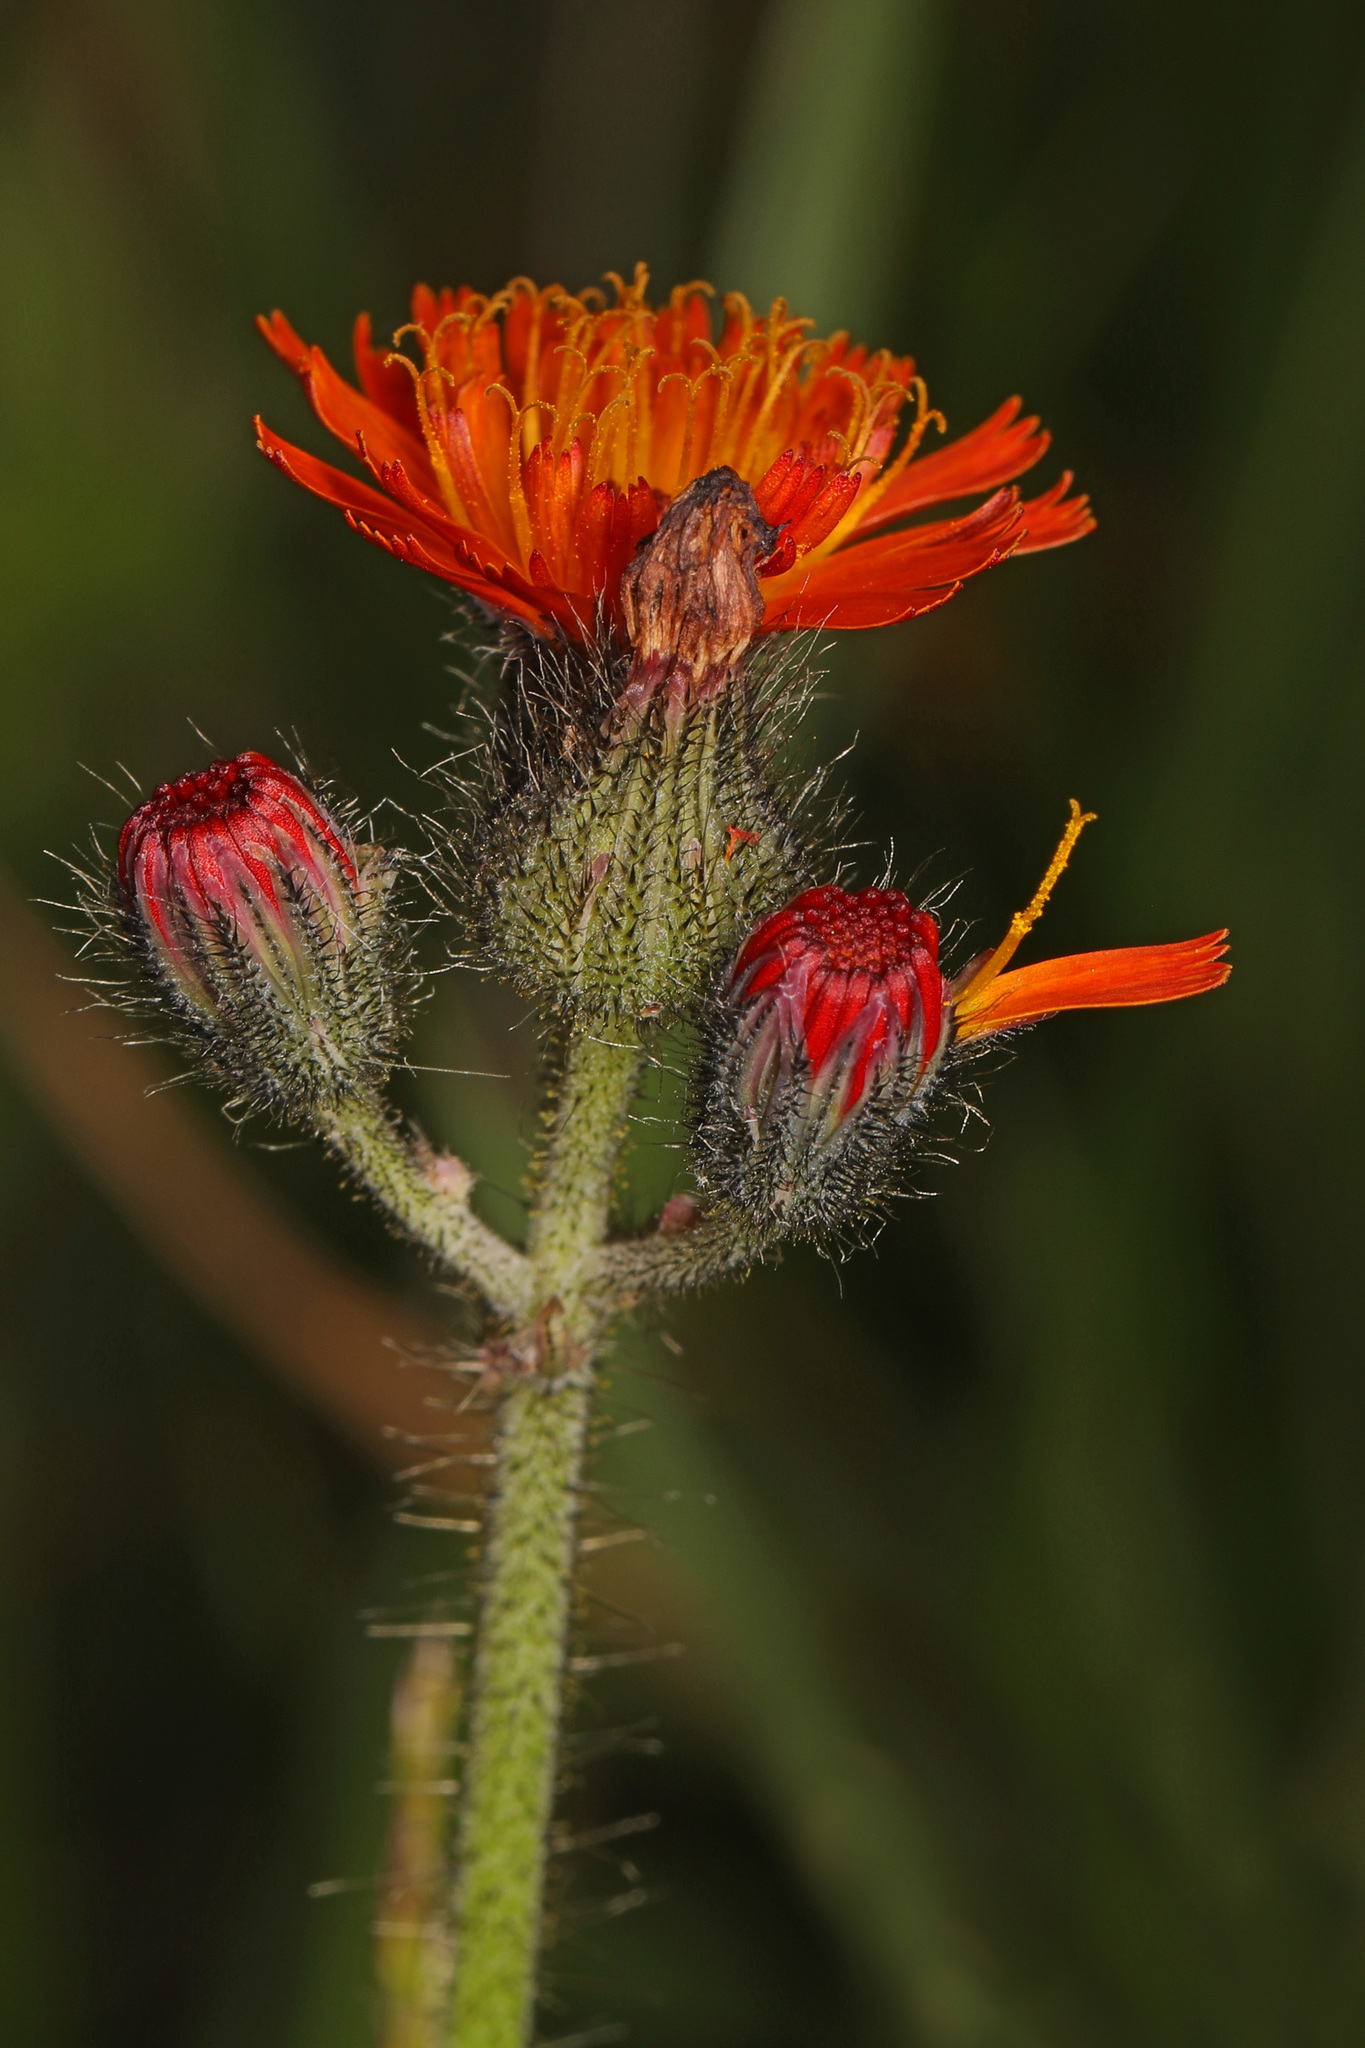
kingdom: Plantae
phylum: Tracheophyta
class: Magnoliopsida
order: Asterales
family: Asteraceae
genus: Pilosella
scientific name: Pilosella aurantiaca
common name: Fox-and-cubs
